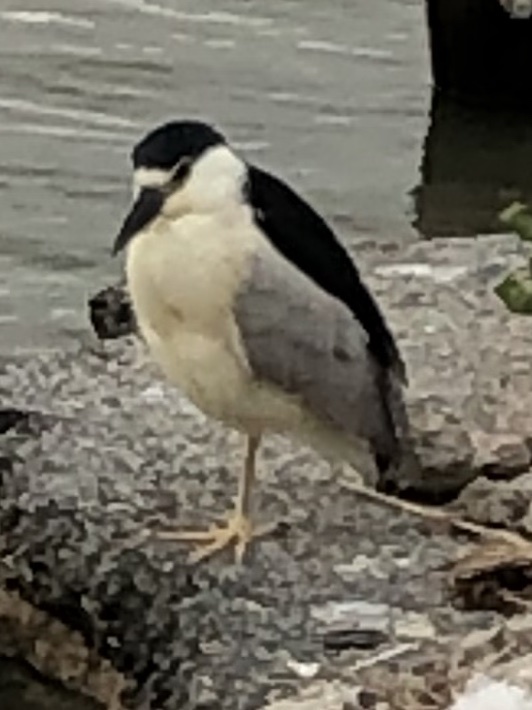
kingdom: Animalia
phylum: Chordata
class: Aves
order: Pelecaniformes
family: Ardeidae
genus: Nycticorax
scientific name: Nycticorax nycticorax
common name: Black-crowned night heron
